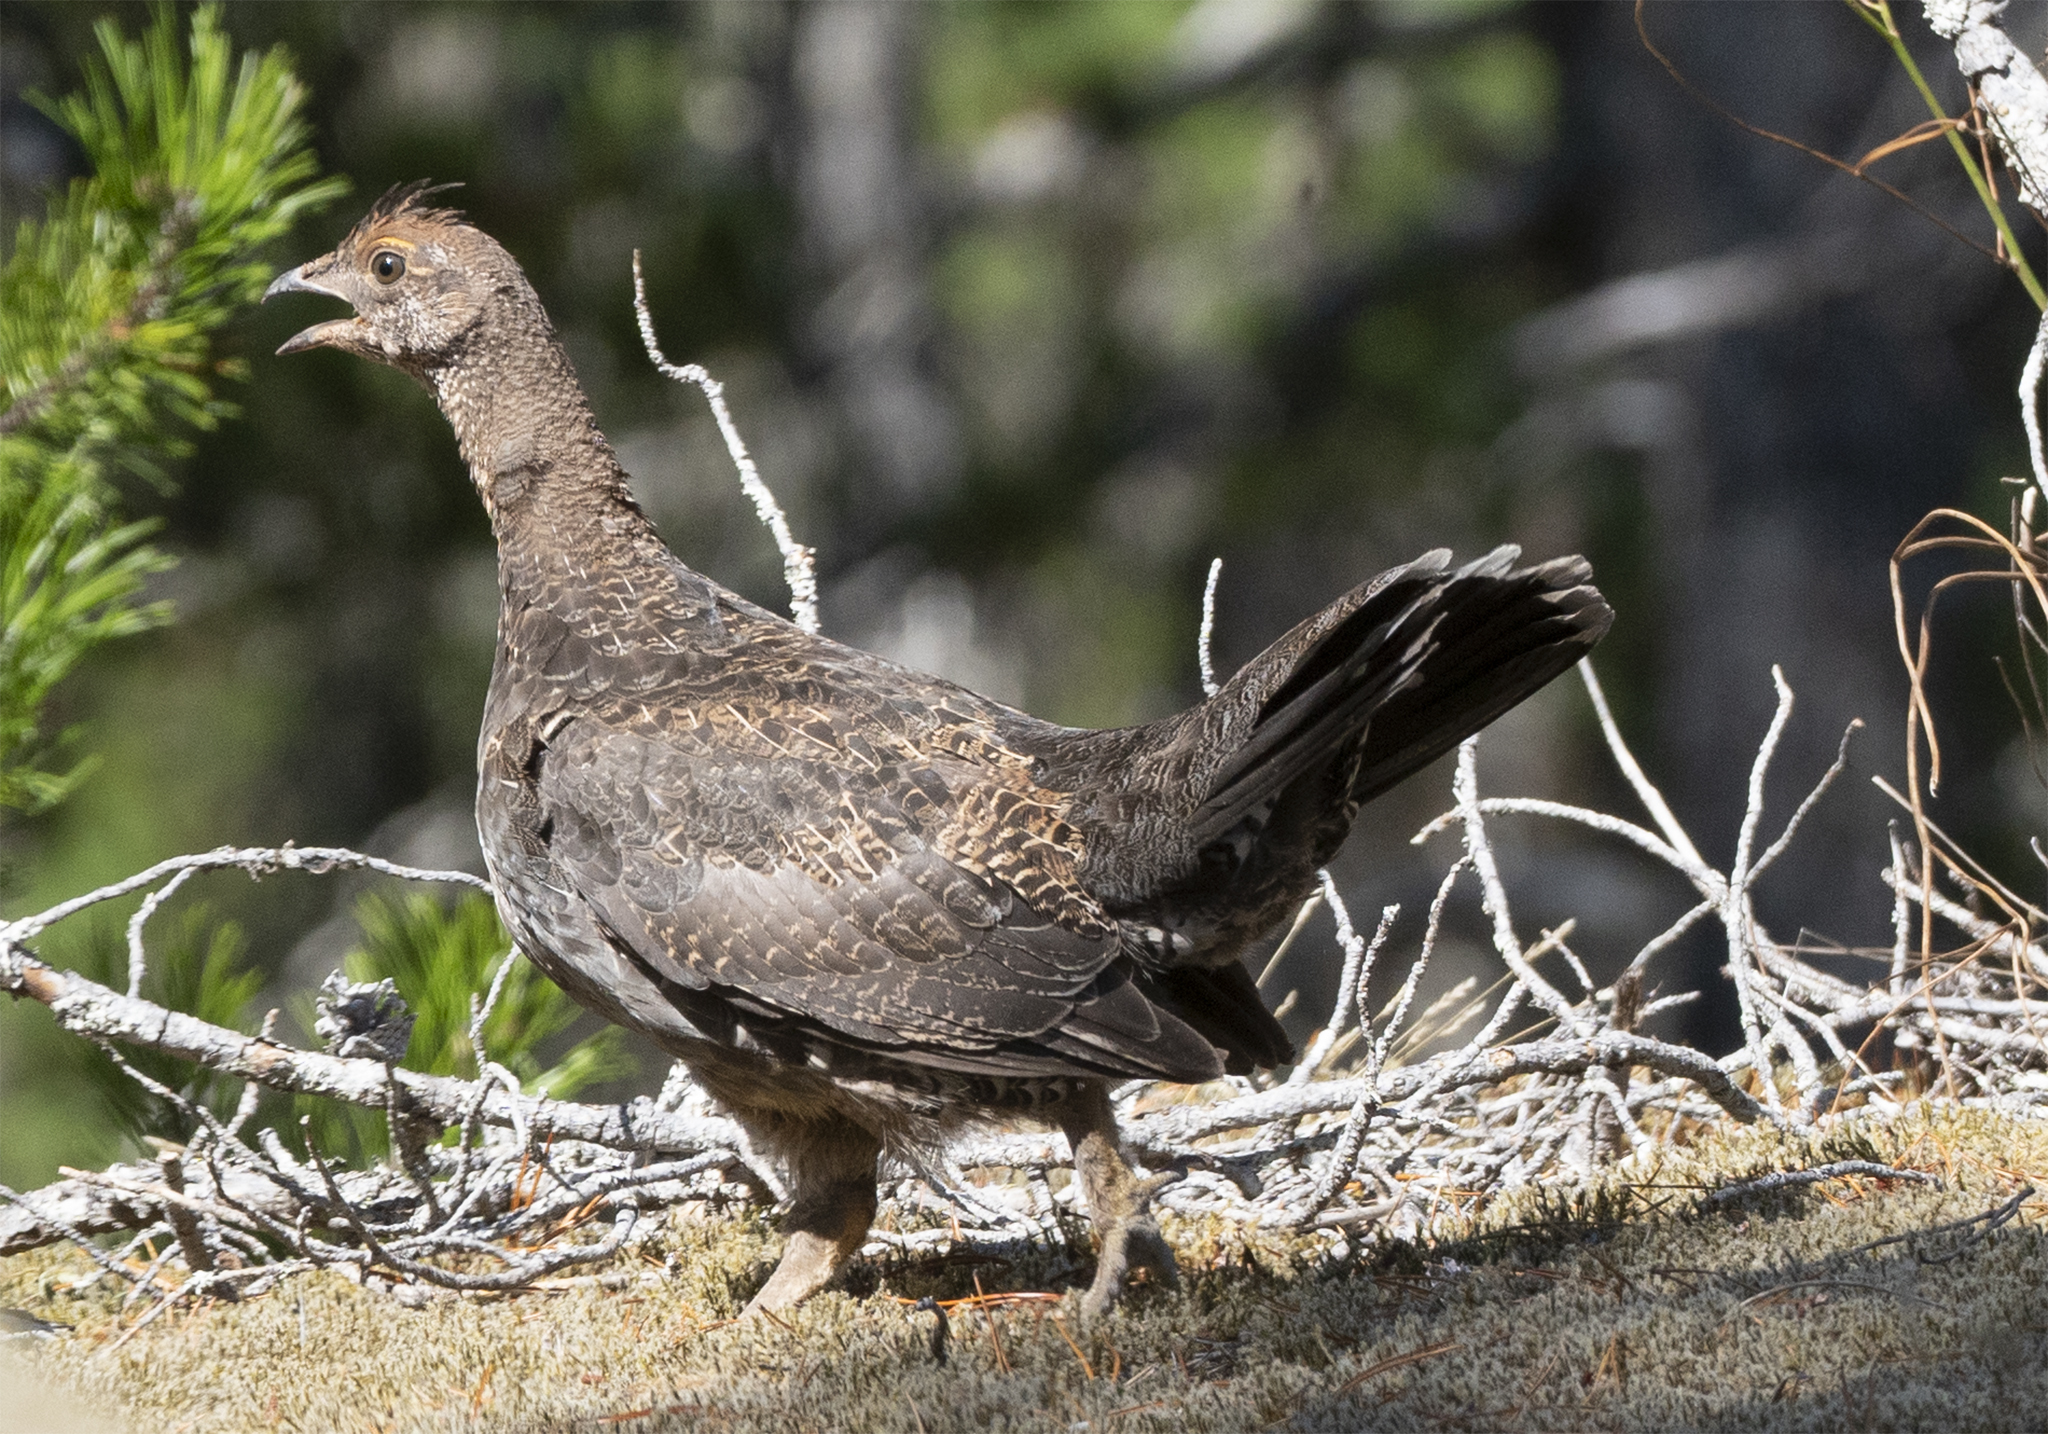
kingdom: Animalia
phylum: Chordata
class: Aves
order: Galliformes
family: Phasianidae
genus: Dendragapus
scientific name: Dendragapus fuliginosus
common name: Sooty grouse
